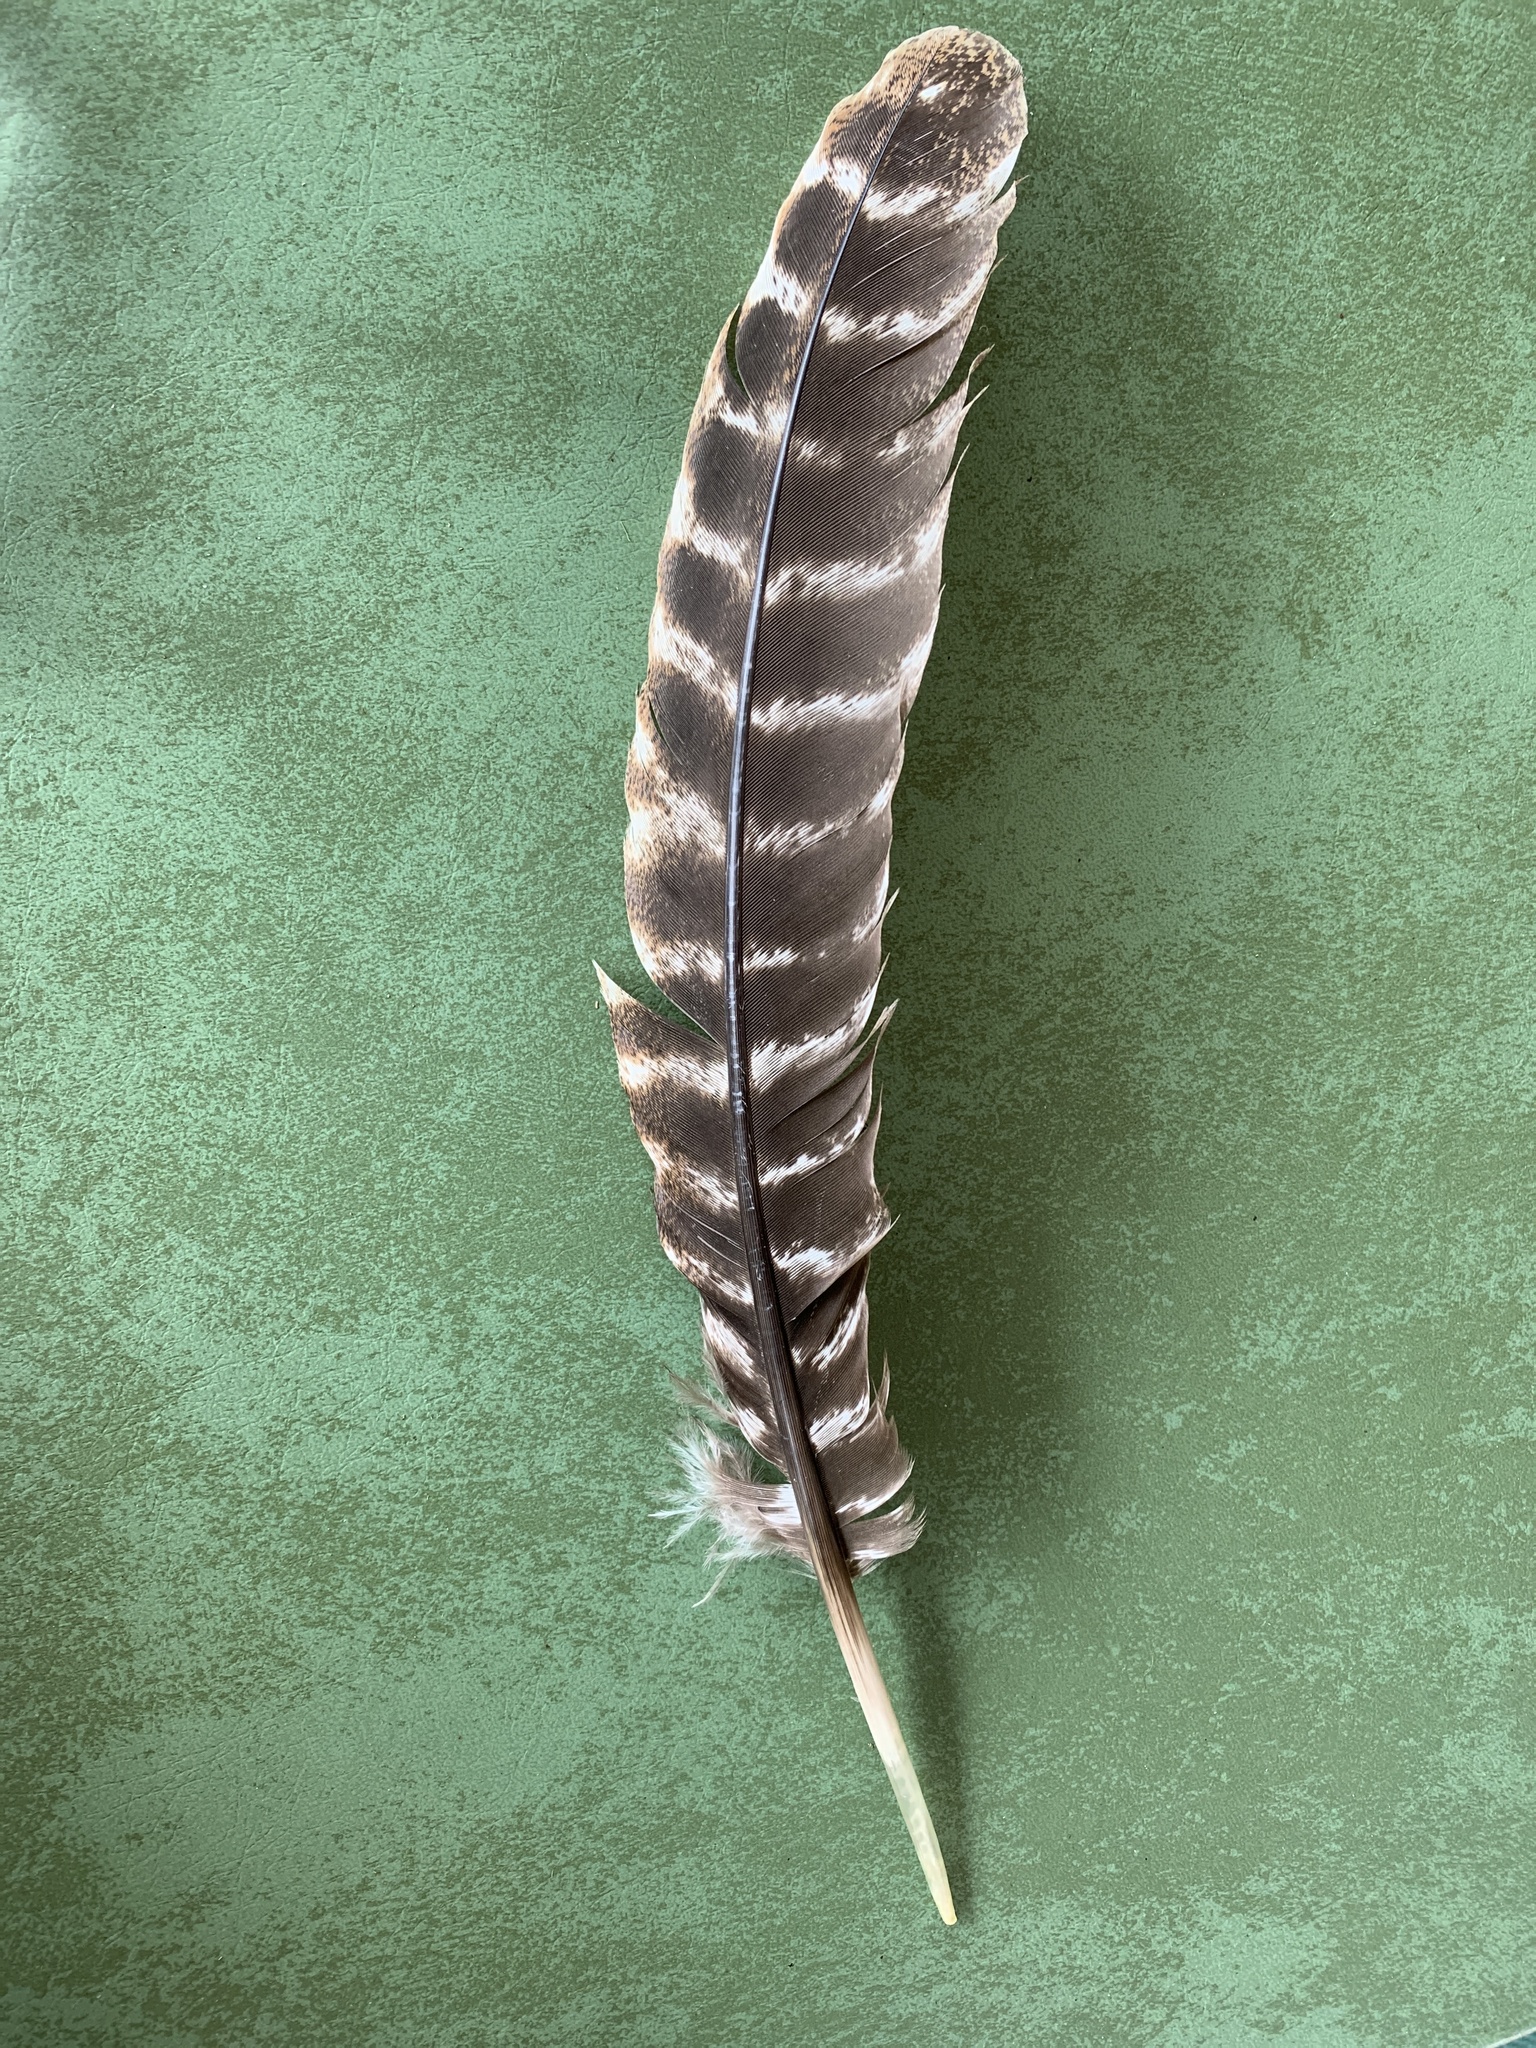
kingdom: Animalia
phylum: Chordata
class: Aves
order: Galliformes
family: Phasianidae
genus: Meleagris
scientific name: Meleagris gallopavo
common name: Wild turkey
